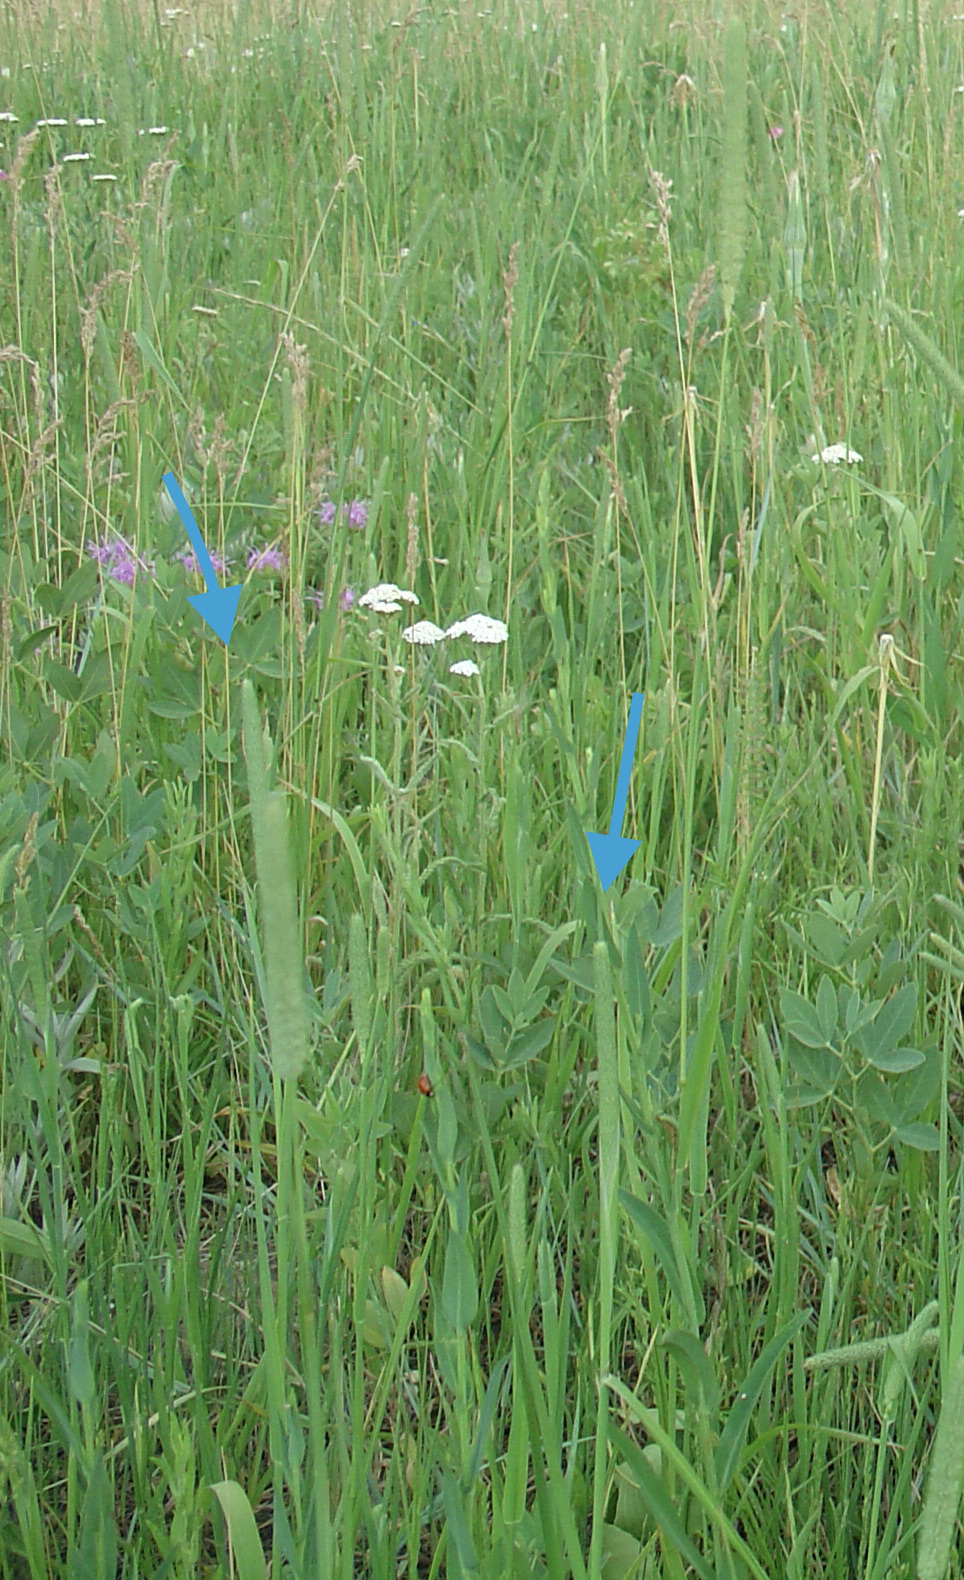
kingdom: Plantae
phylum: Tracheophyta
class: Liliopsida
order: Poales
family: Poaceae
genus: Phleum
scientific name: Phleum pratense
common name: Timothy grass
